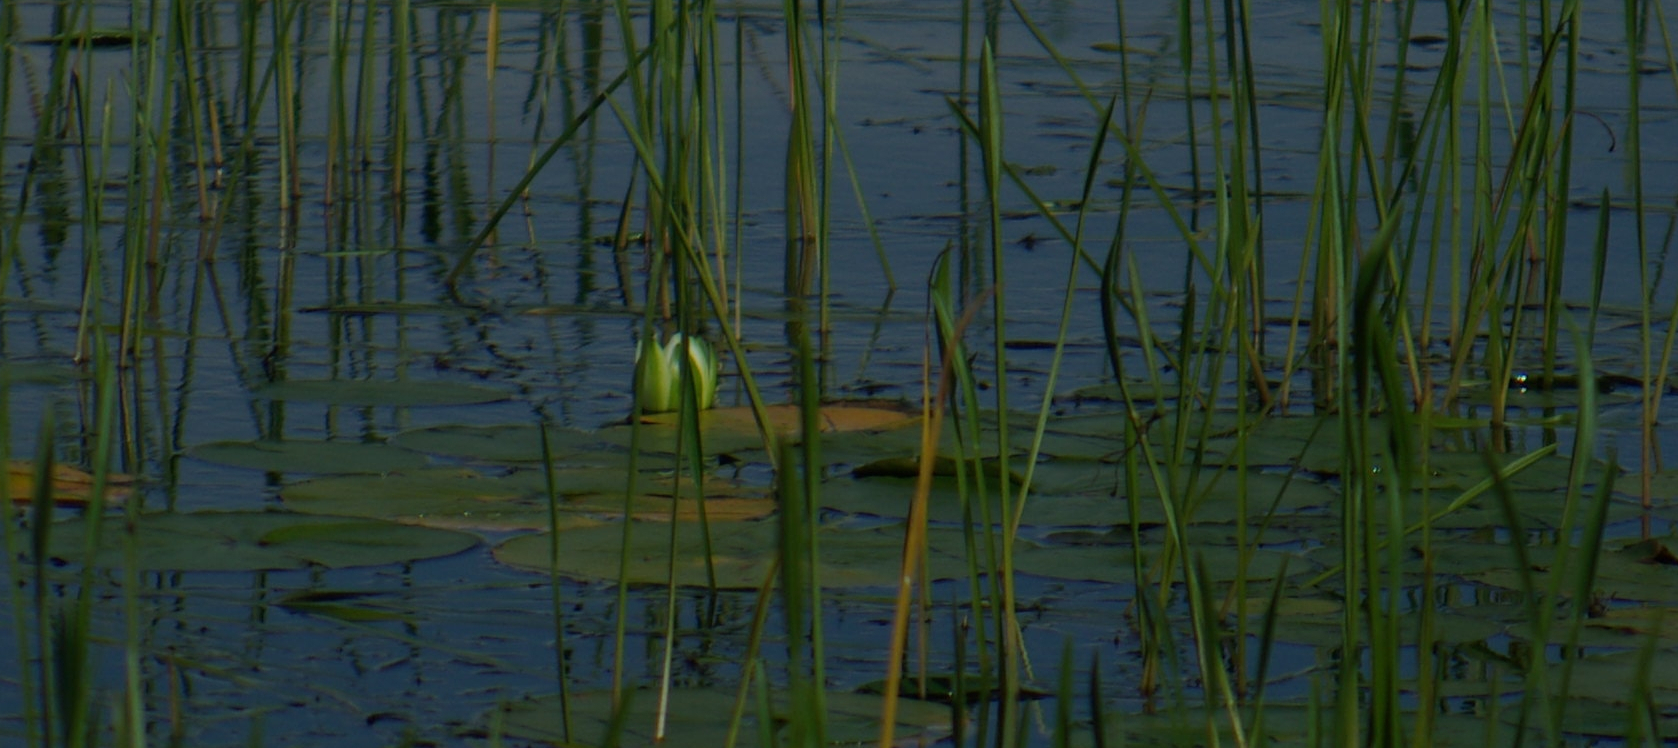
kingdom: Plantae
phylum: Tracheophyta
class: Magnoliopsida
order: Nymphaeales
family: Nymphaeaceae
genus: Nymphaea
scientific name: Nymphaea odorata
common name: Fragrant water-lily
